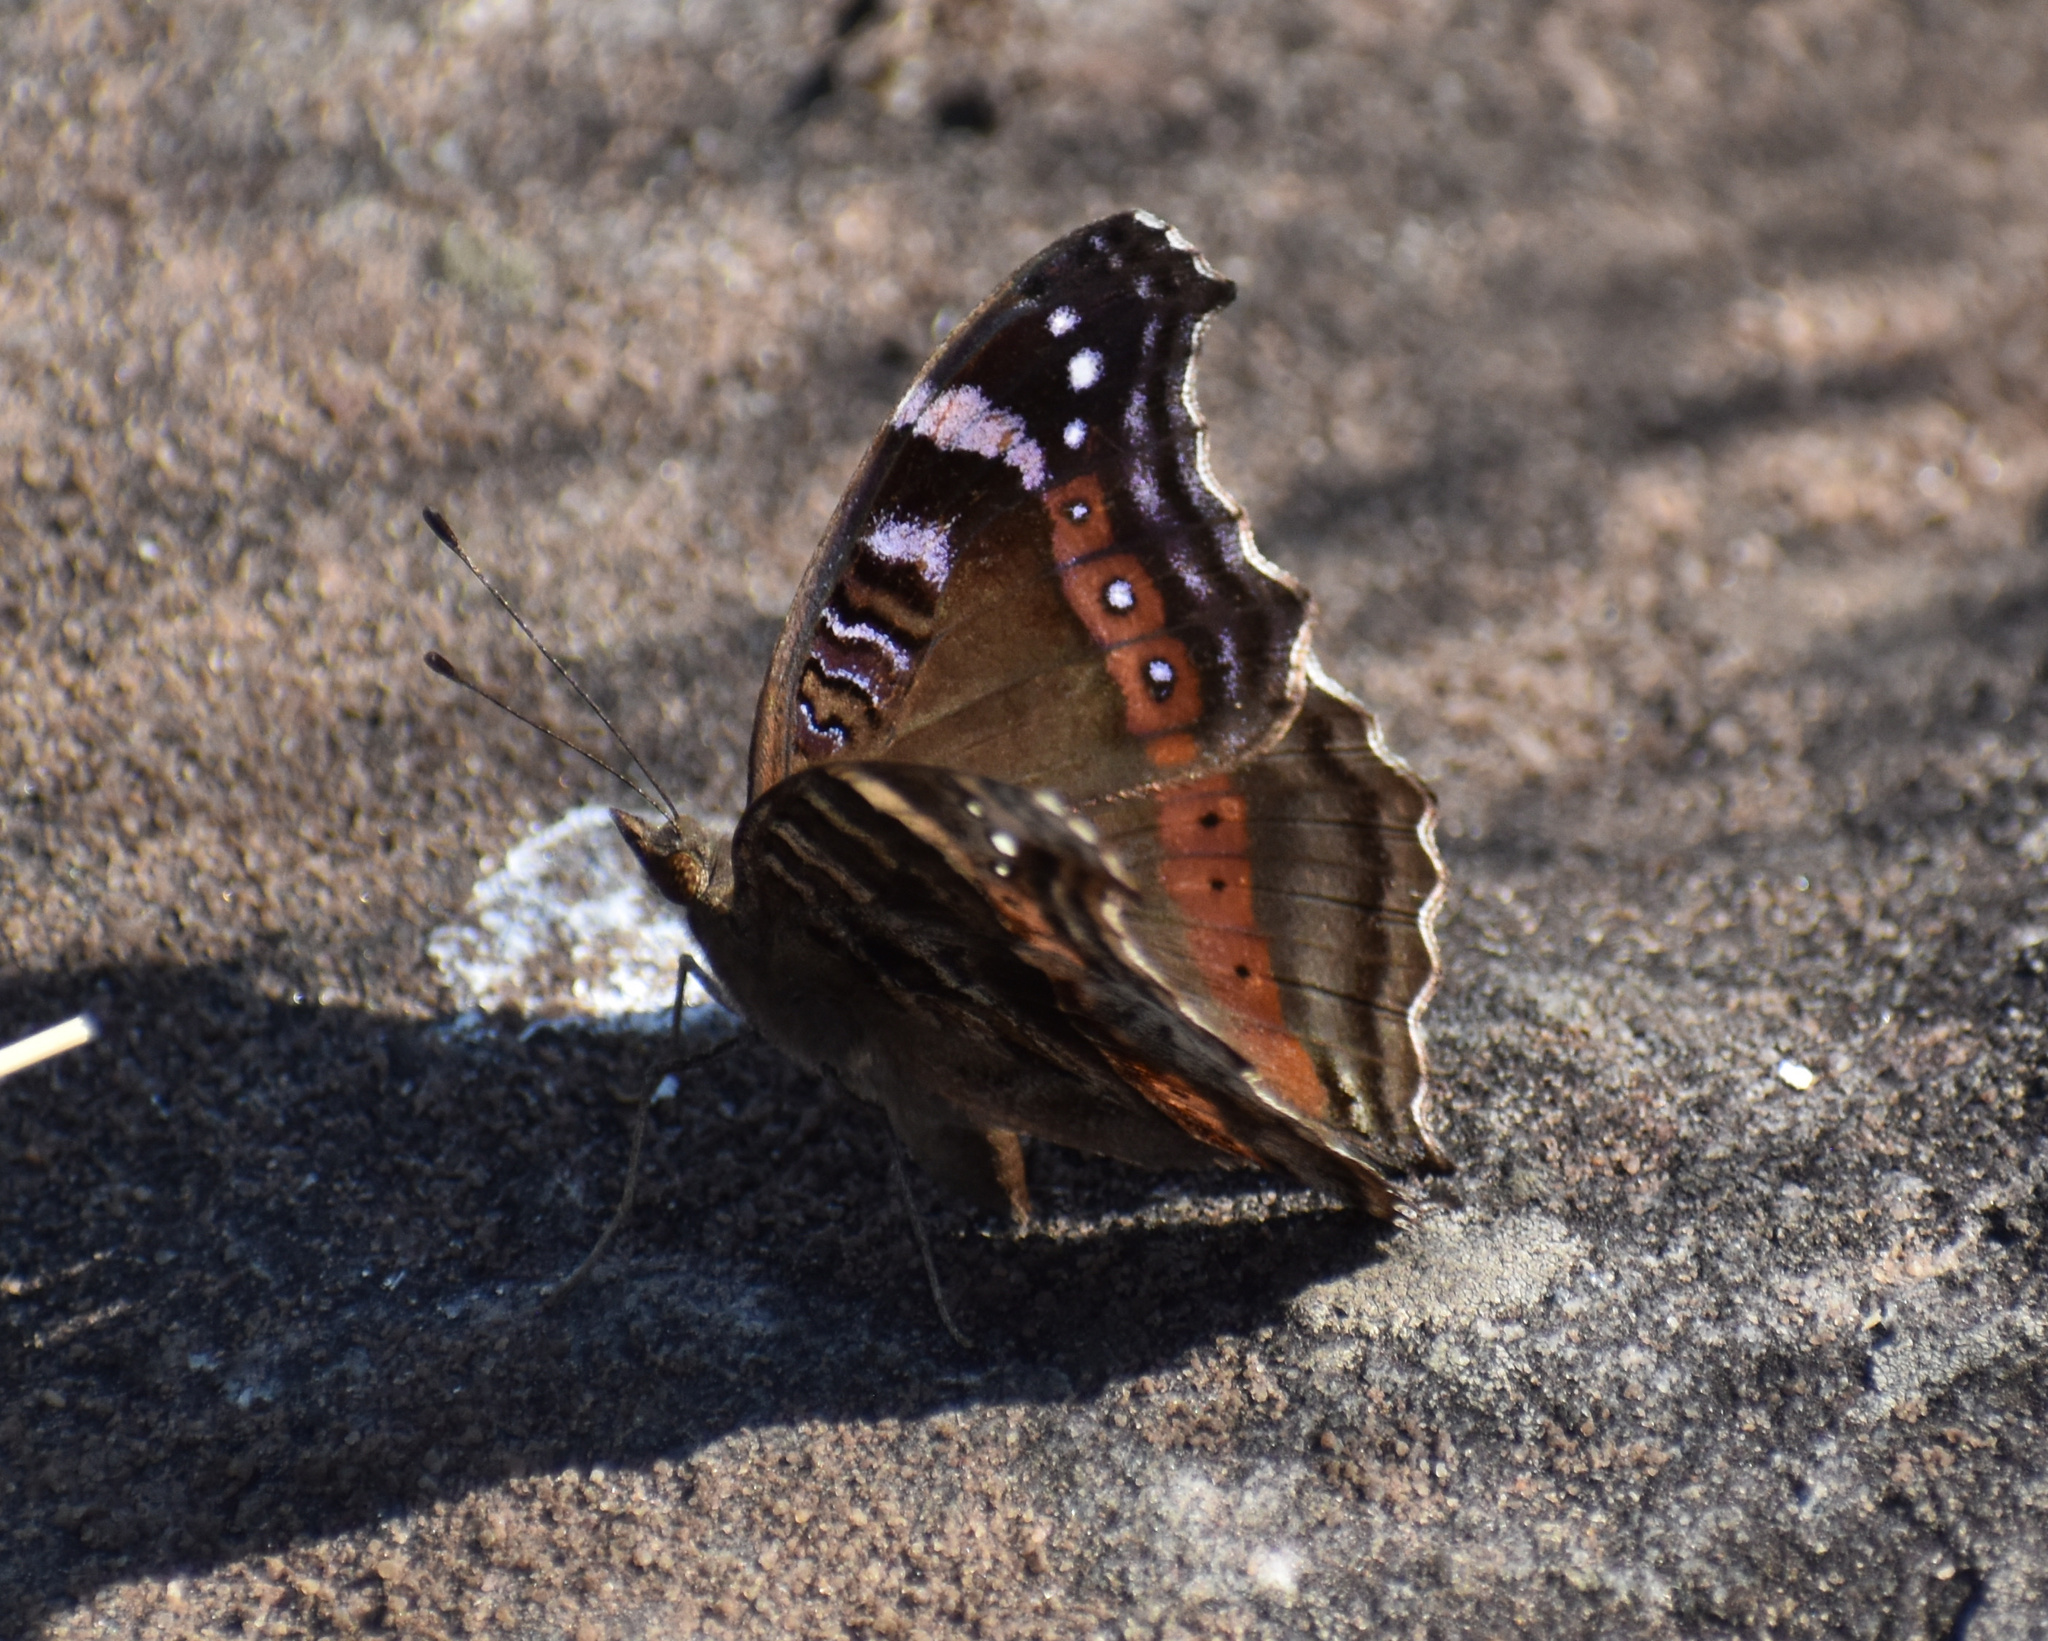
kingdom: Animalia
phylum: Arthropoda
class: Insecta
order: Lepidoptera
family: Nymphalidae
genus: Junonia
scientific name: Junonia archesia
